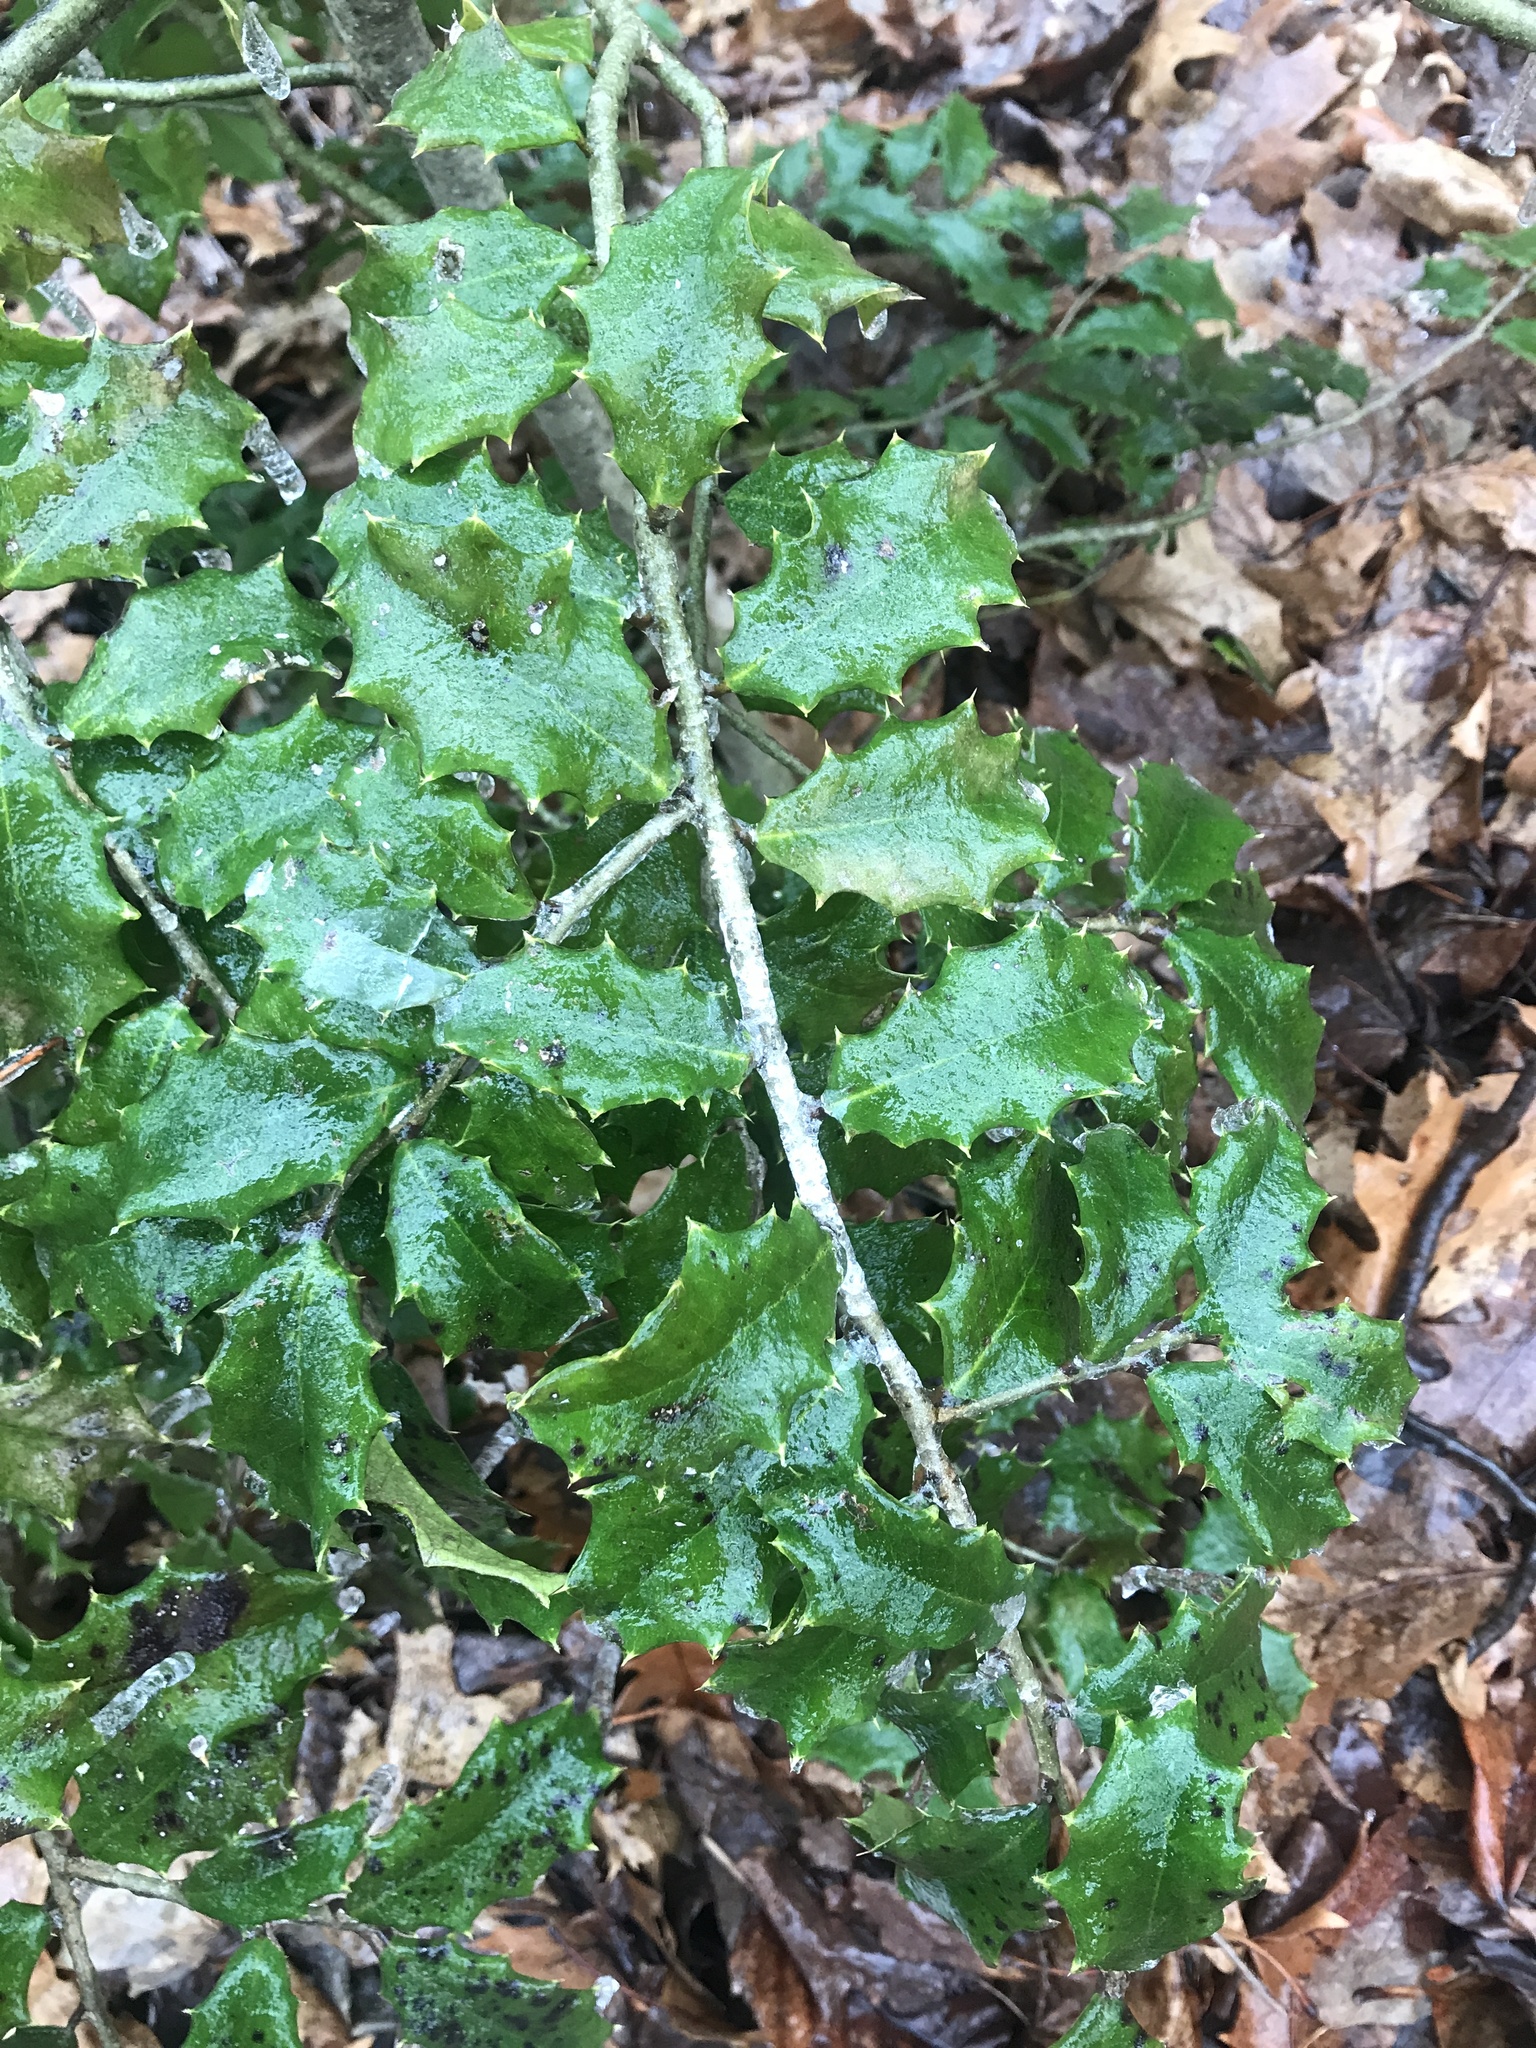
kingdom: Plantae
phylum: Tracheophyta
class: Magnoliopsida
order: Aquifoliales
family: Aquifoliaceae
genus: Ilex
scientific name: Ilex opaca
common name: American holly
